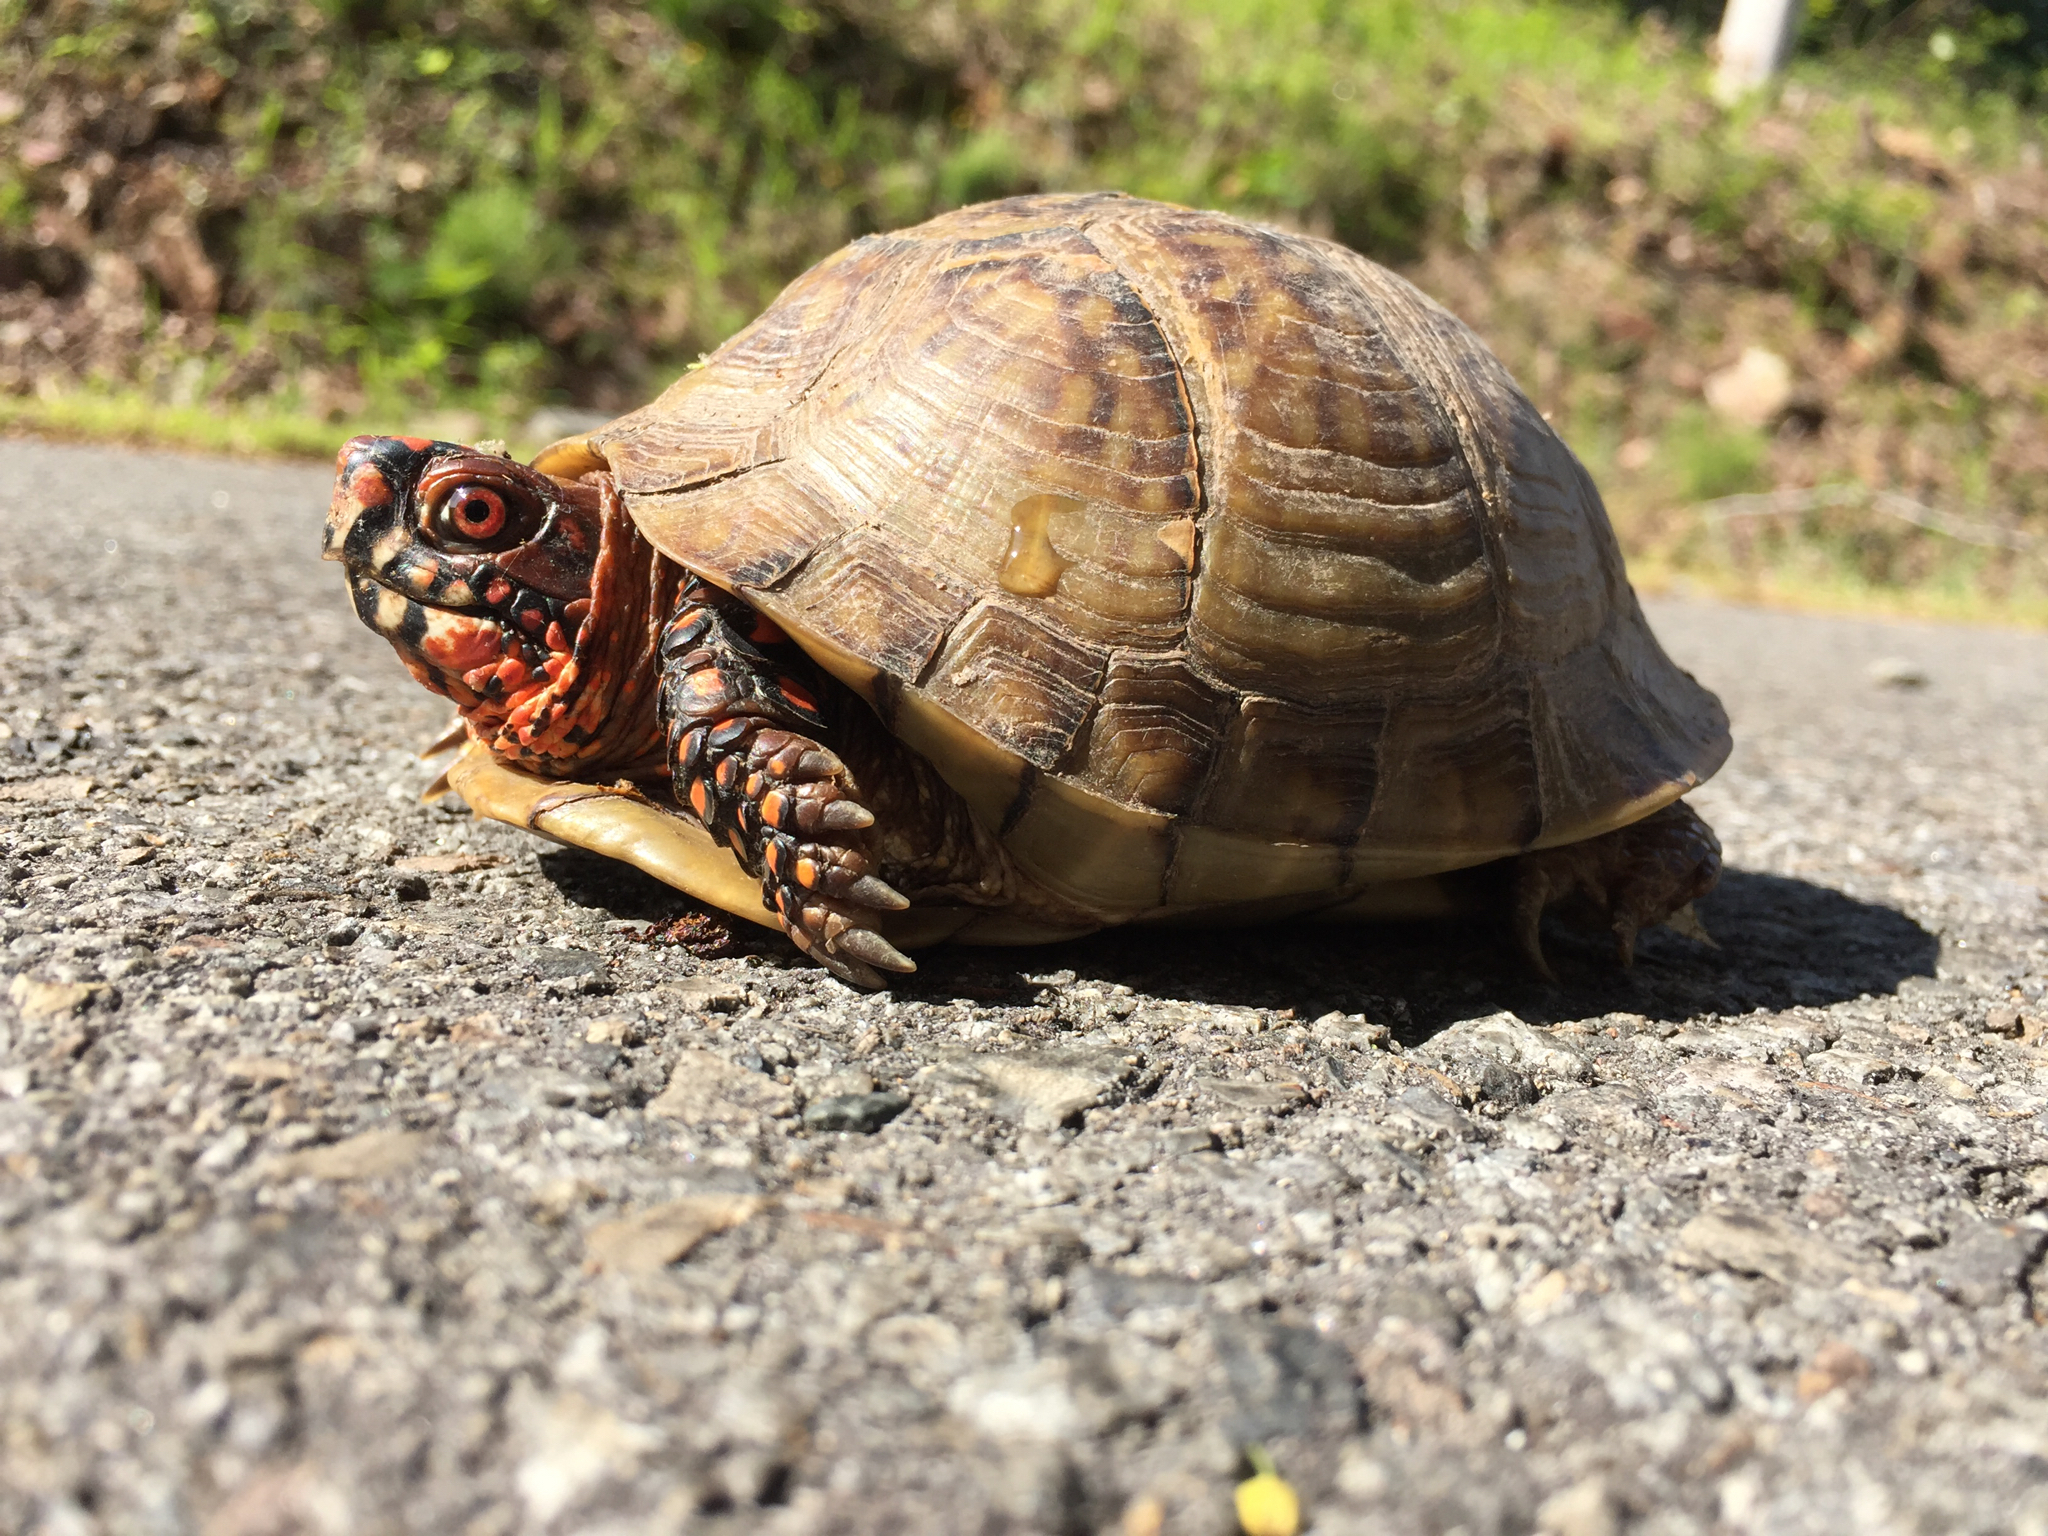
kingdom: Animalia
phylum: Chordata
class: Testudines
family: Emydidae
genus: Terrapene
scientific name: Terrapene carolina
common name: Common box turtle
